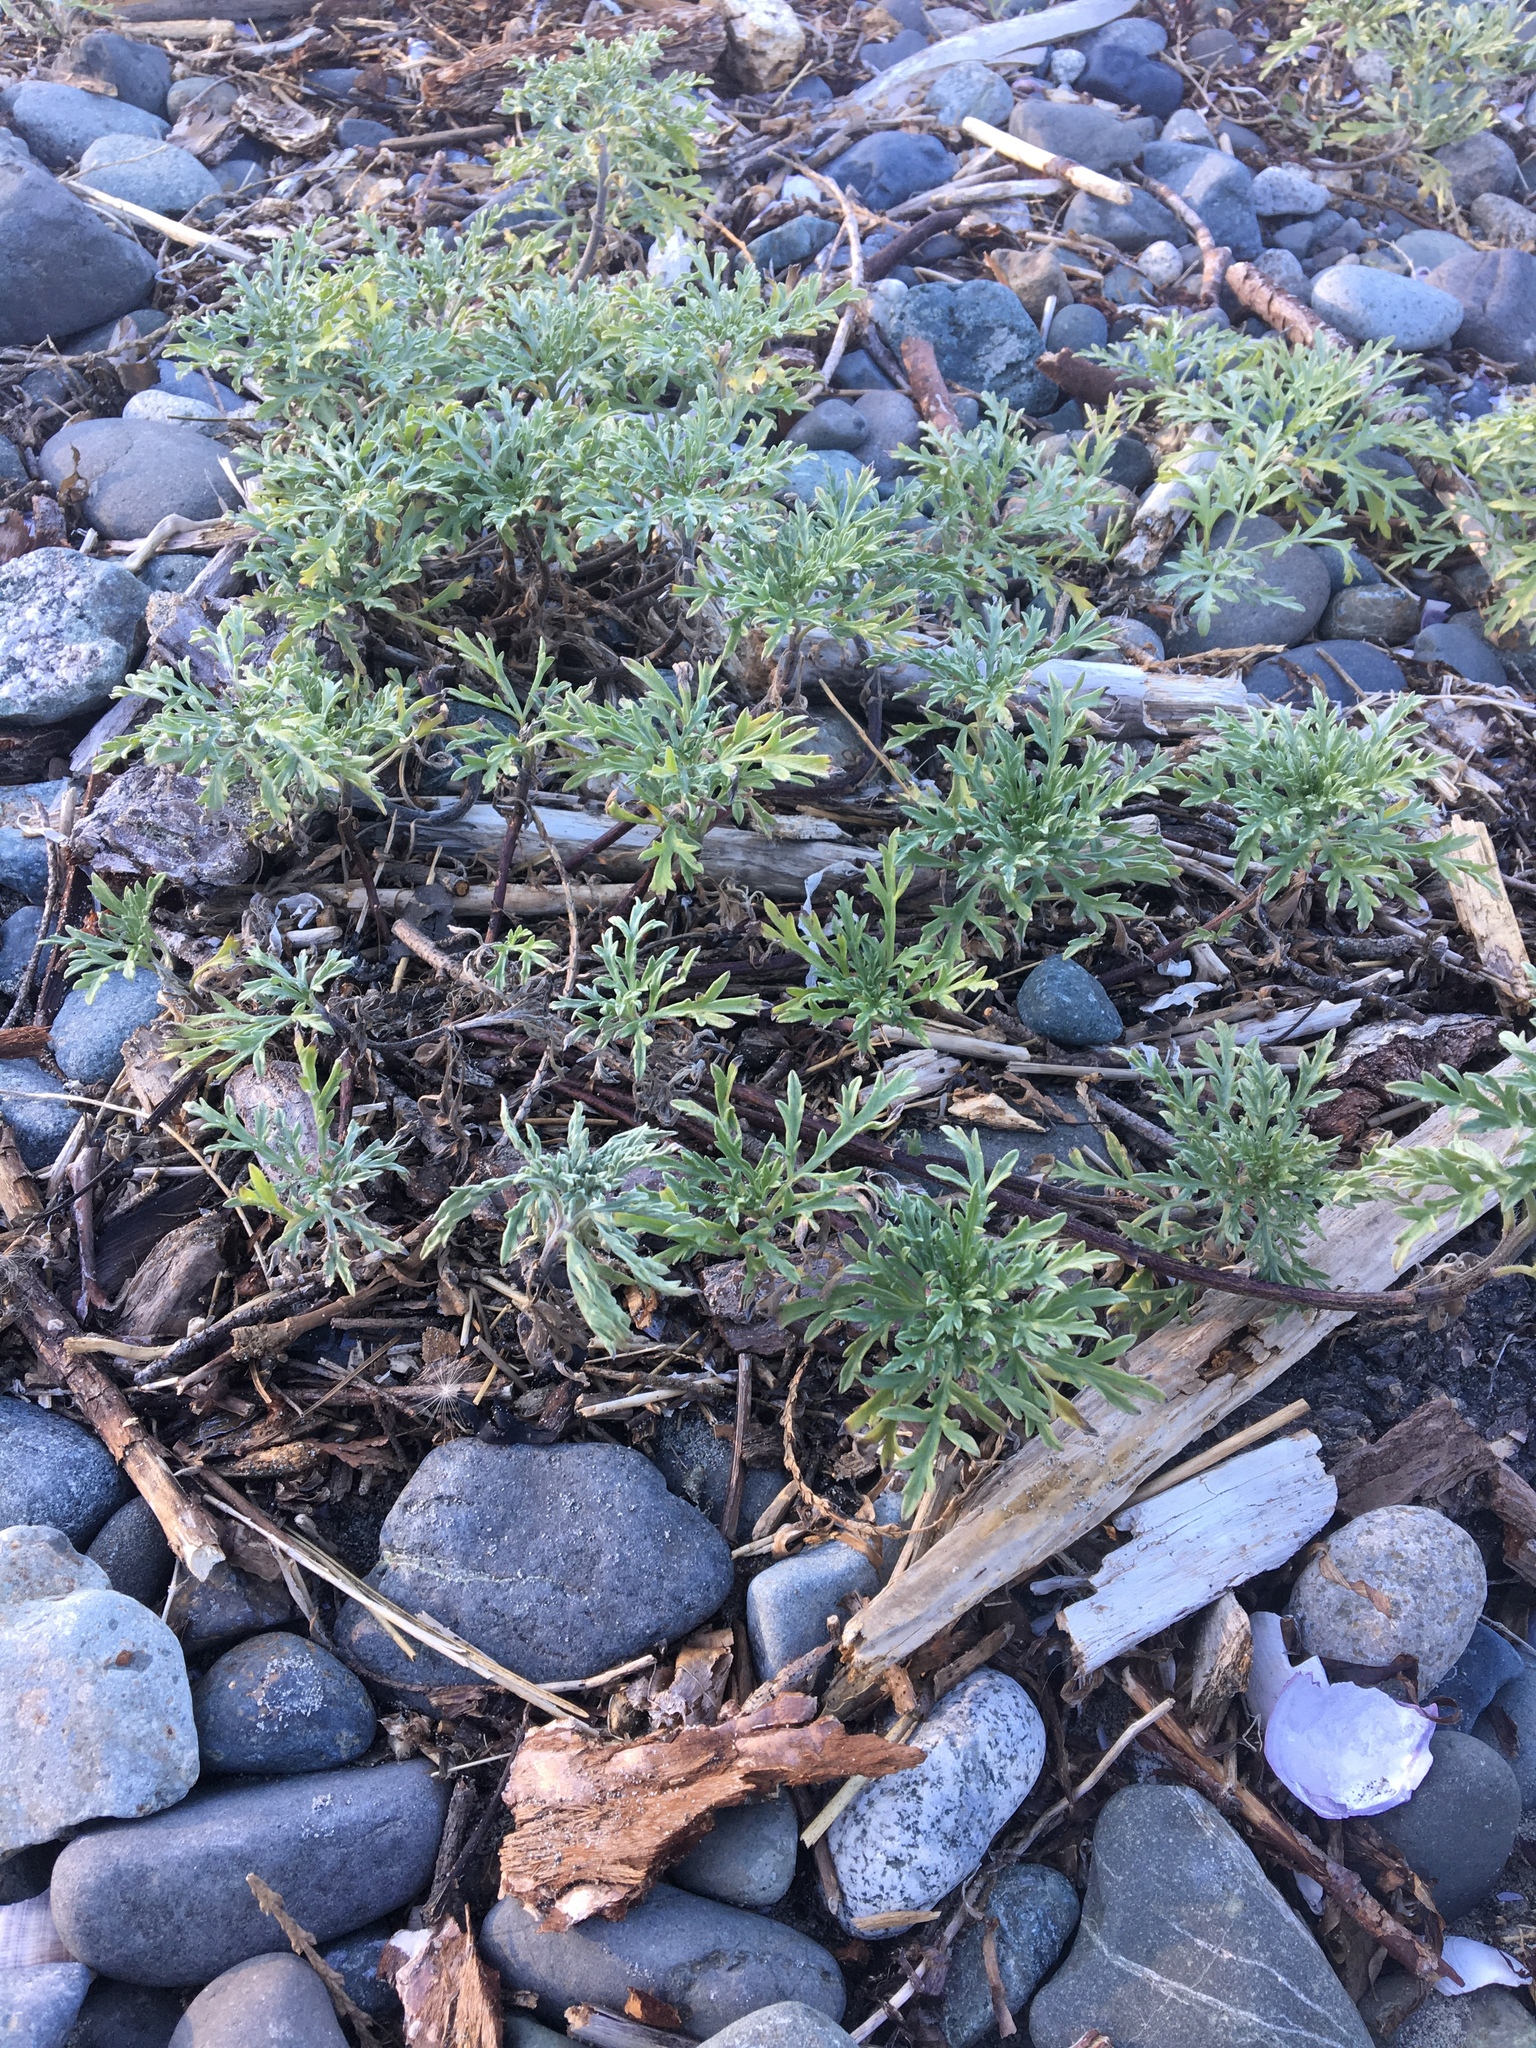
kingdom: Plantae
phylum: Tracheophyta
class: Magnoliopsida
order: Asterales
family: Asteraceae
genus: Ambrosia
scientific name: Ambrosia chamissonis
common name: Beachbur
